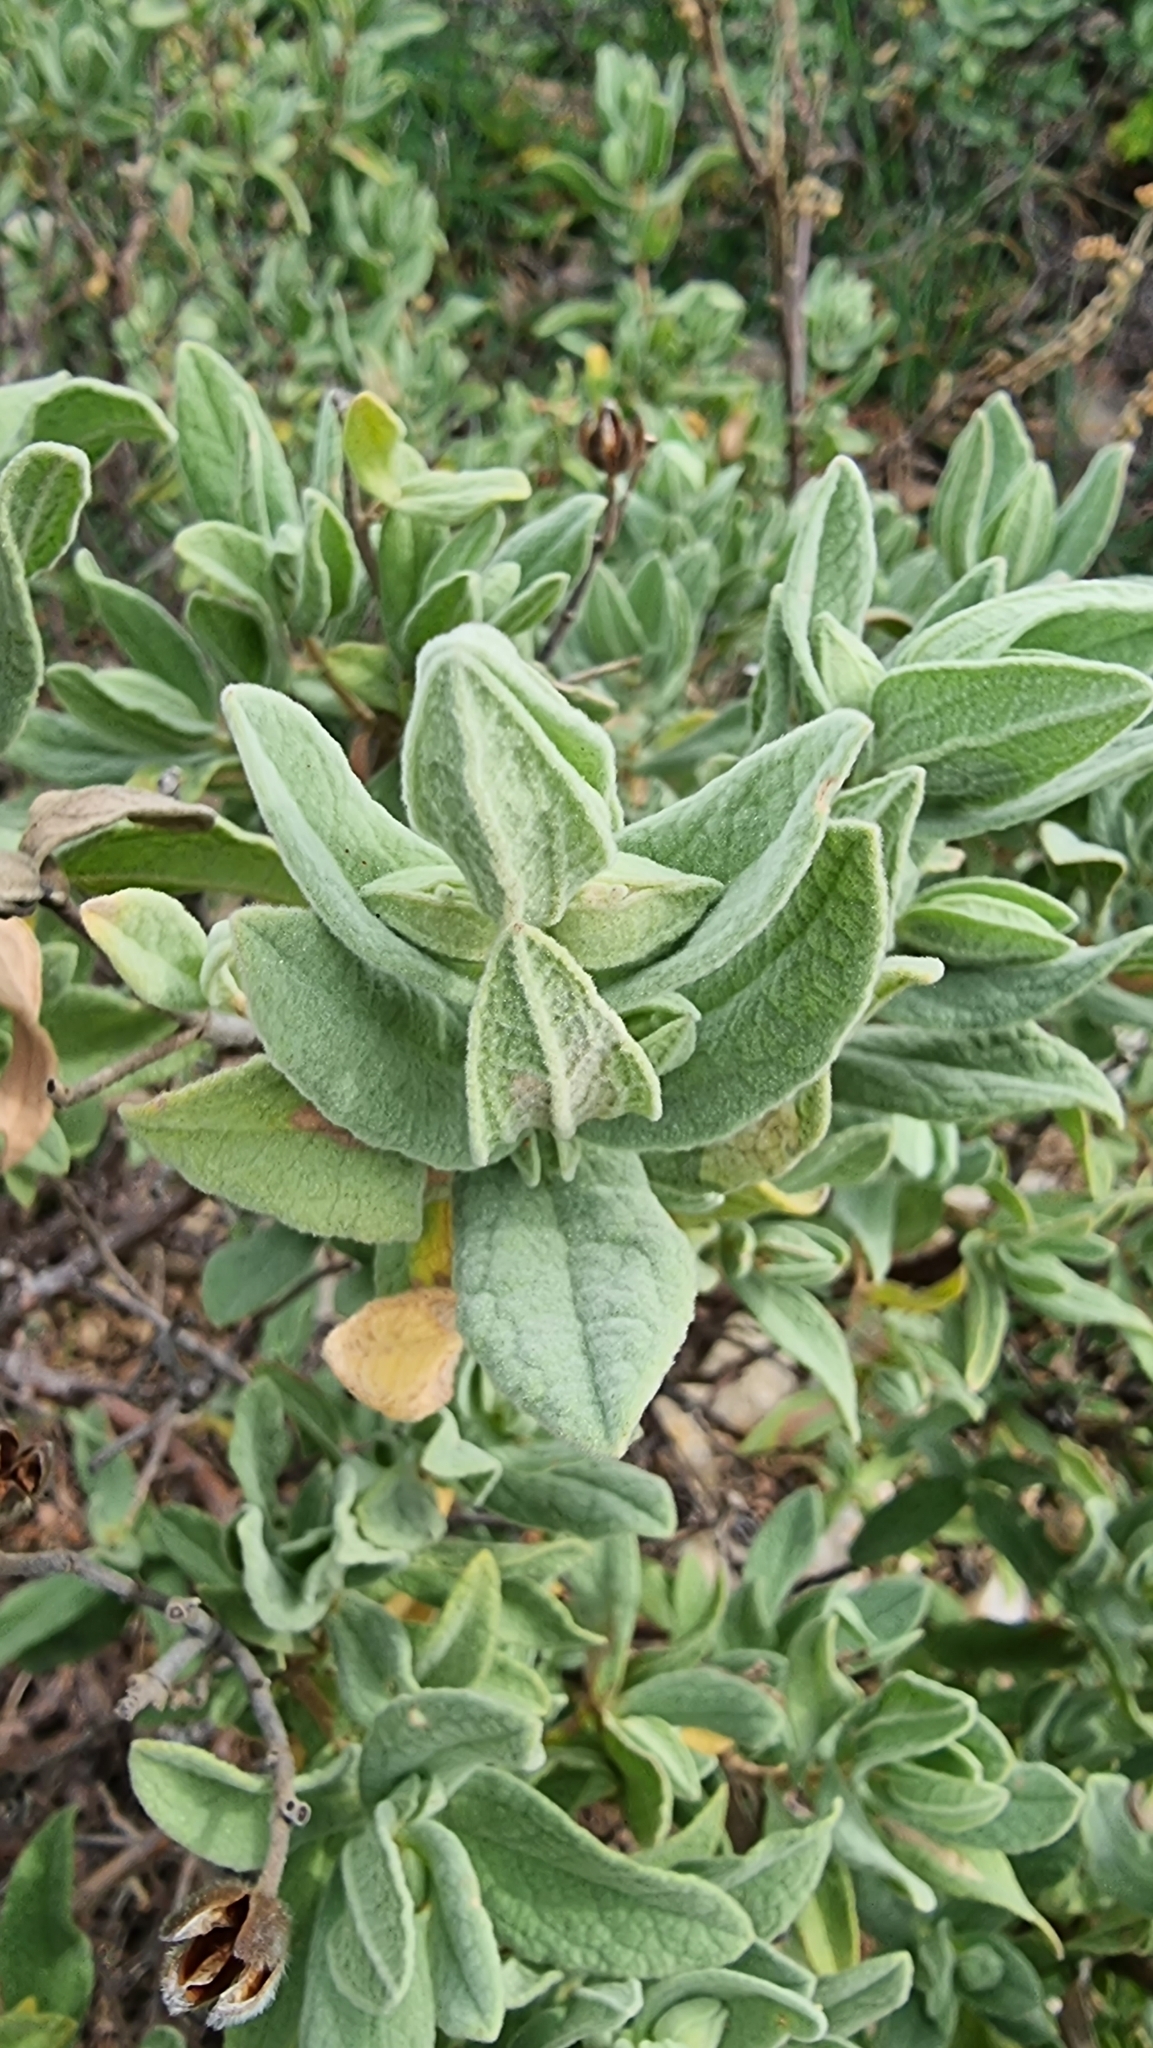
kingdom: Plantae
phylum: Tracheophyta
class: Magnoliopsida
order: Malvales
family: Cistaceae
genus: Cistus
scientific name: Cistus albidus
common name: White-leaf rock-rose
